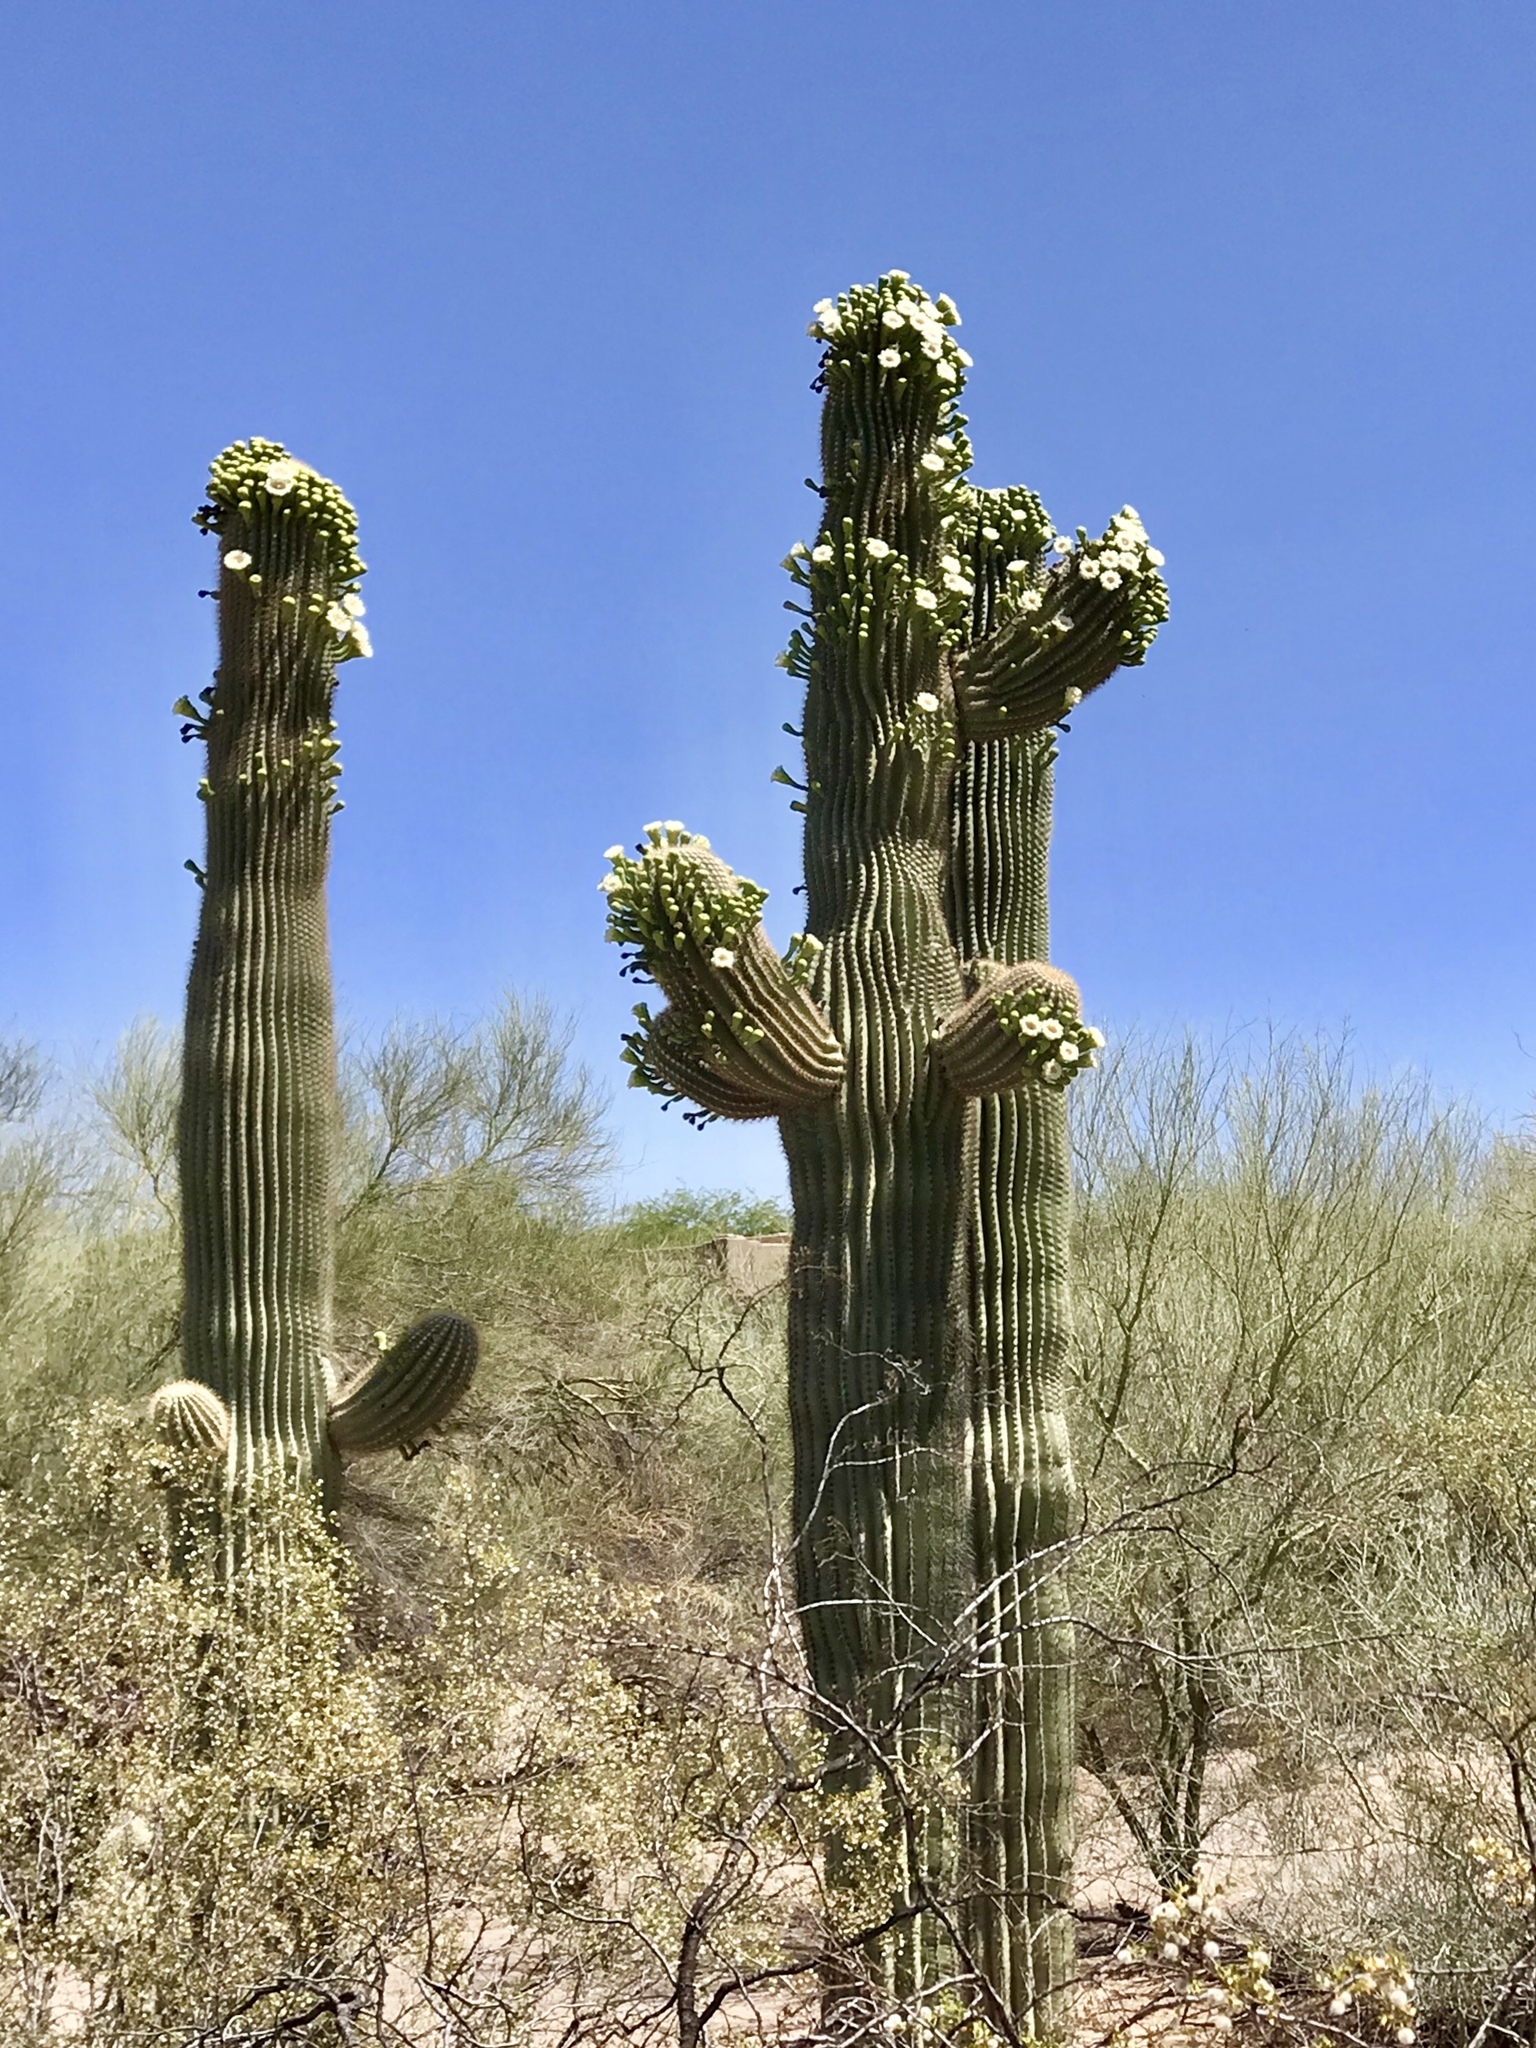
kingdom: Plantae
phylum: Tracheophyta
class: Magnoliopsida
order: Caryophyllales
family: Cactaceae
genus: Carnegiea
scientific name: Carnegiea gigantea
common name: Saguaro
